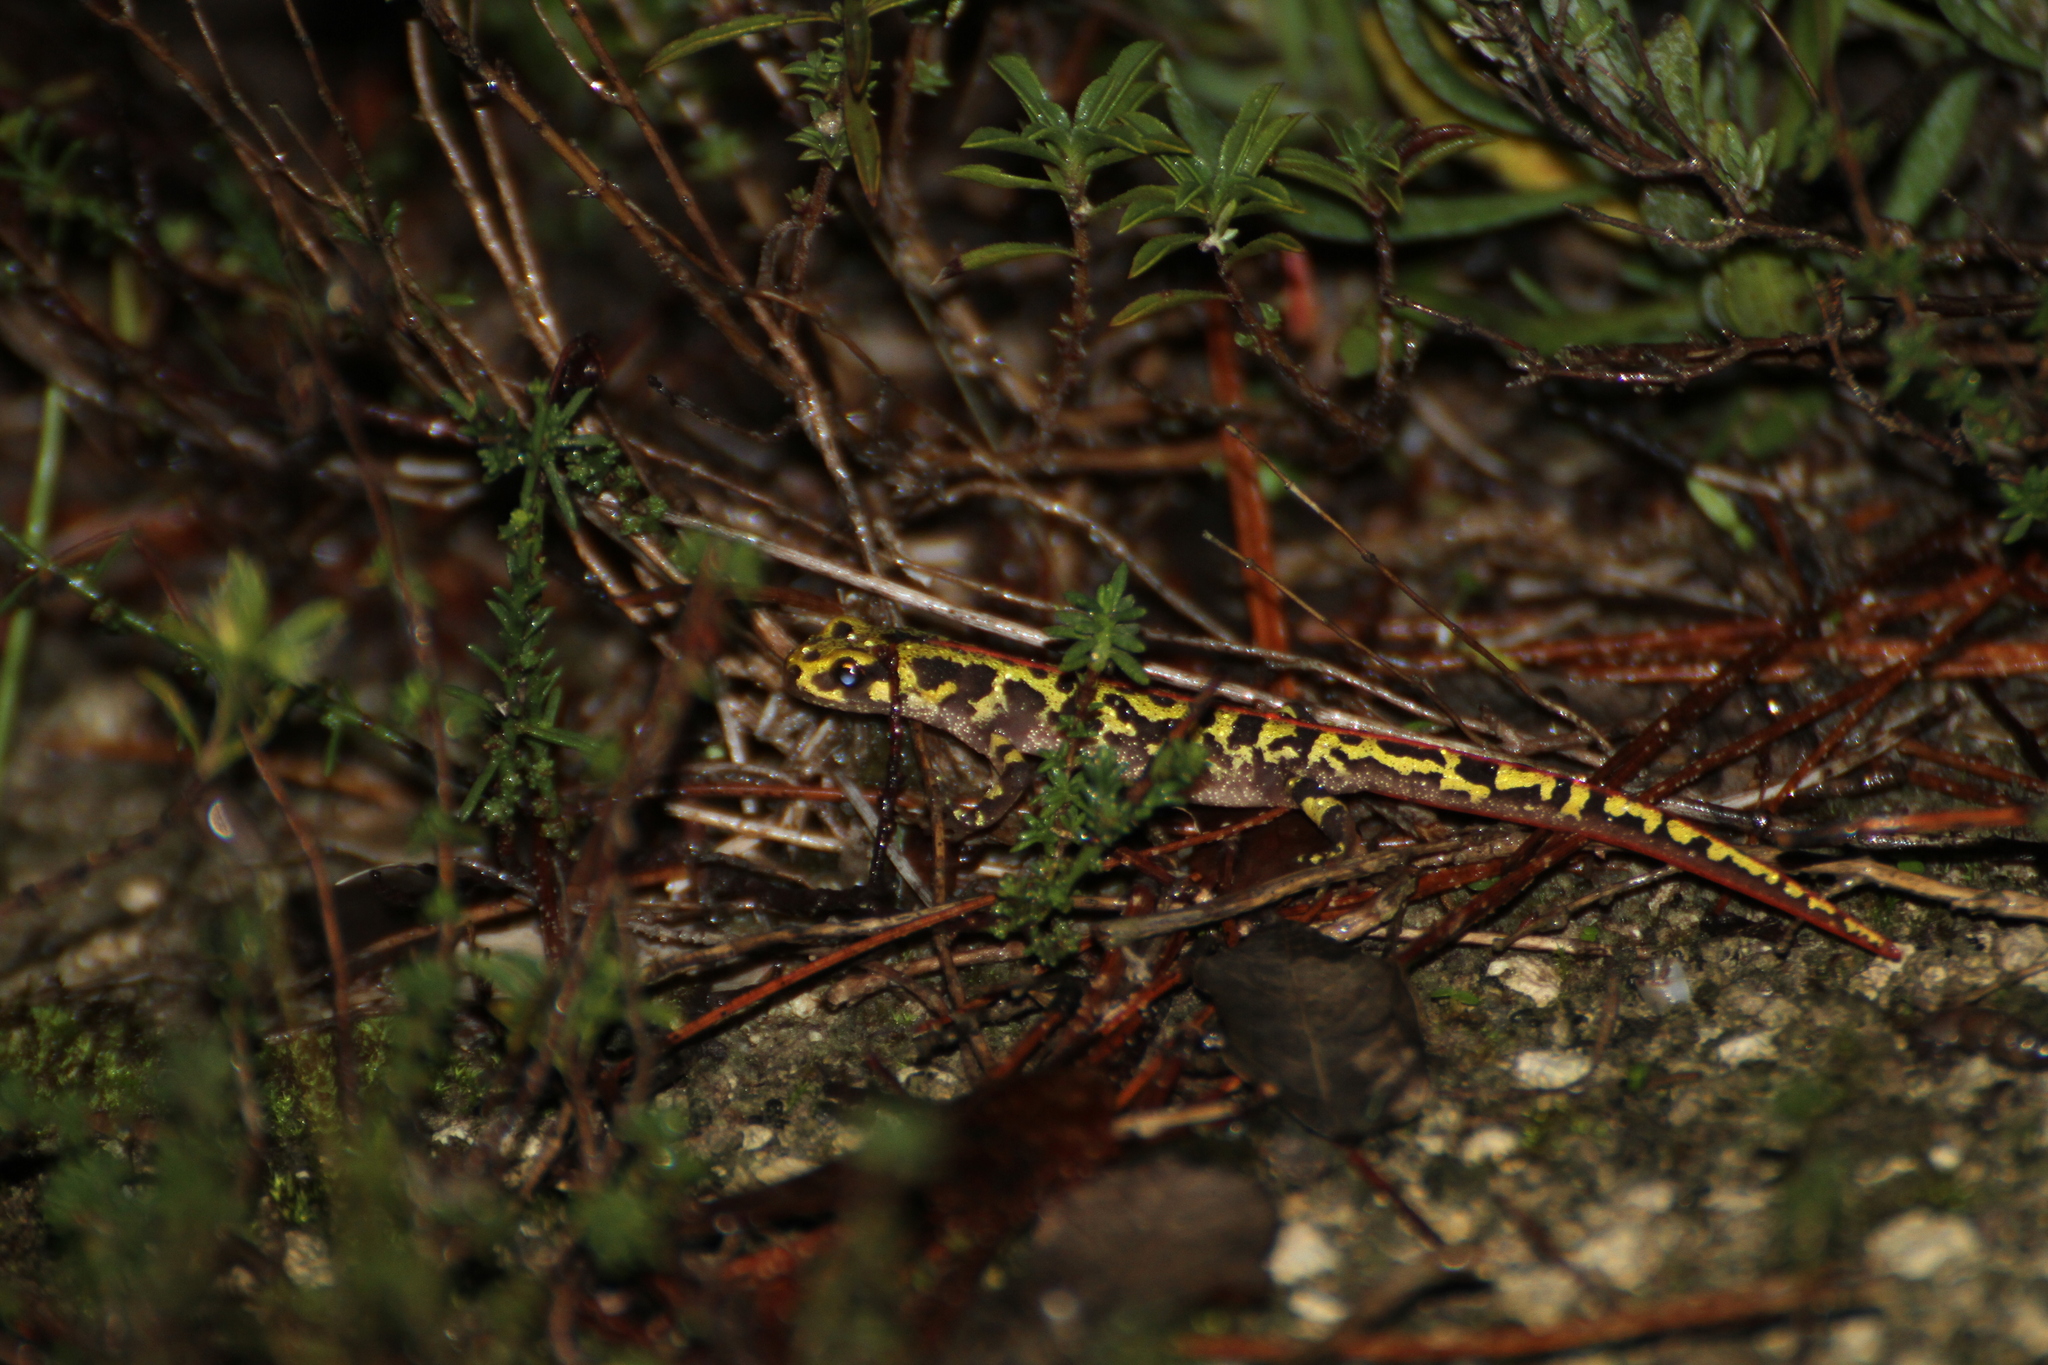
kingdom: Animalia
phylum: Chordata
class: Amphibia
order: Caudata
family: Salamandridae
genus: Triturus
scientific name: Triturus marmoratus
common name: Marbled newt
